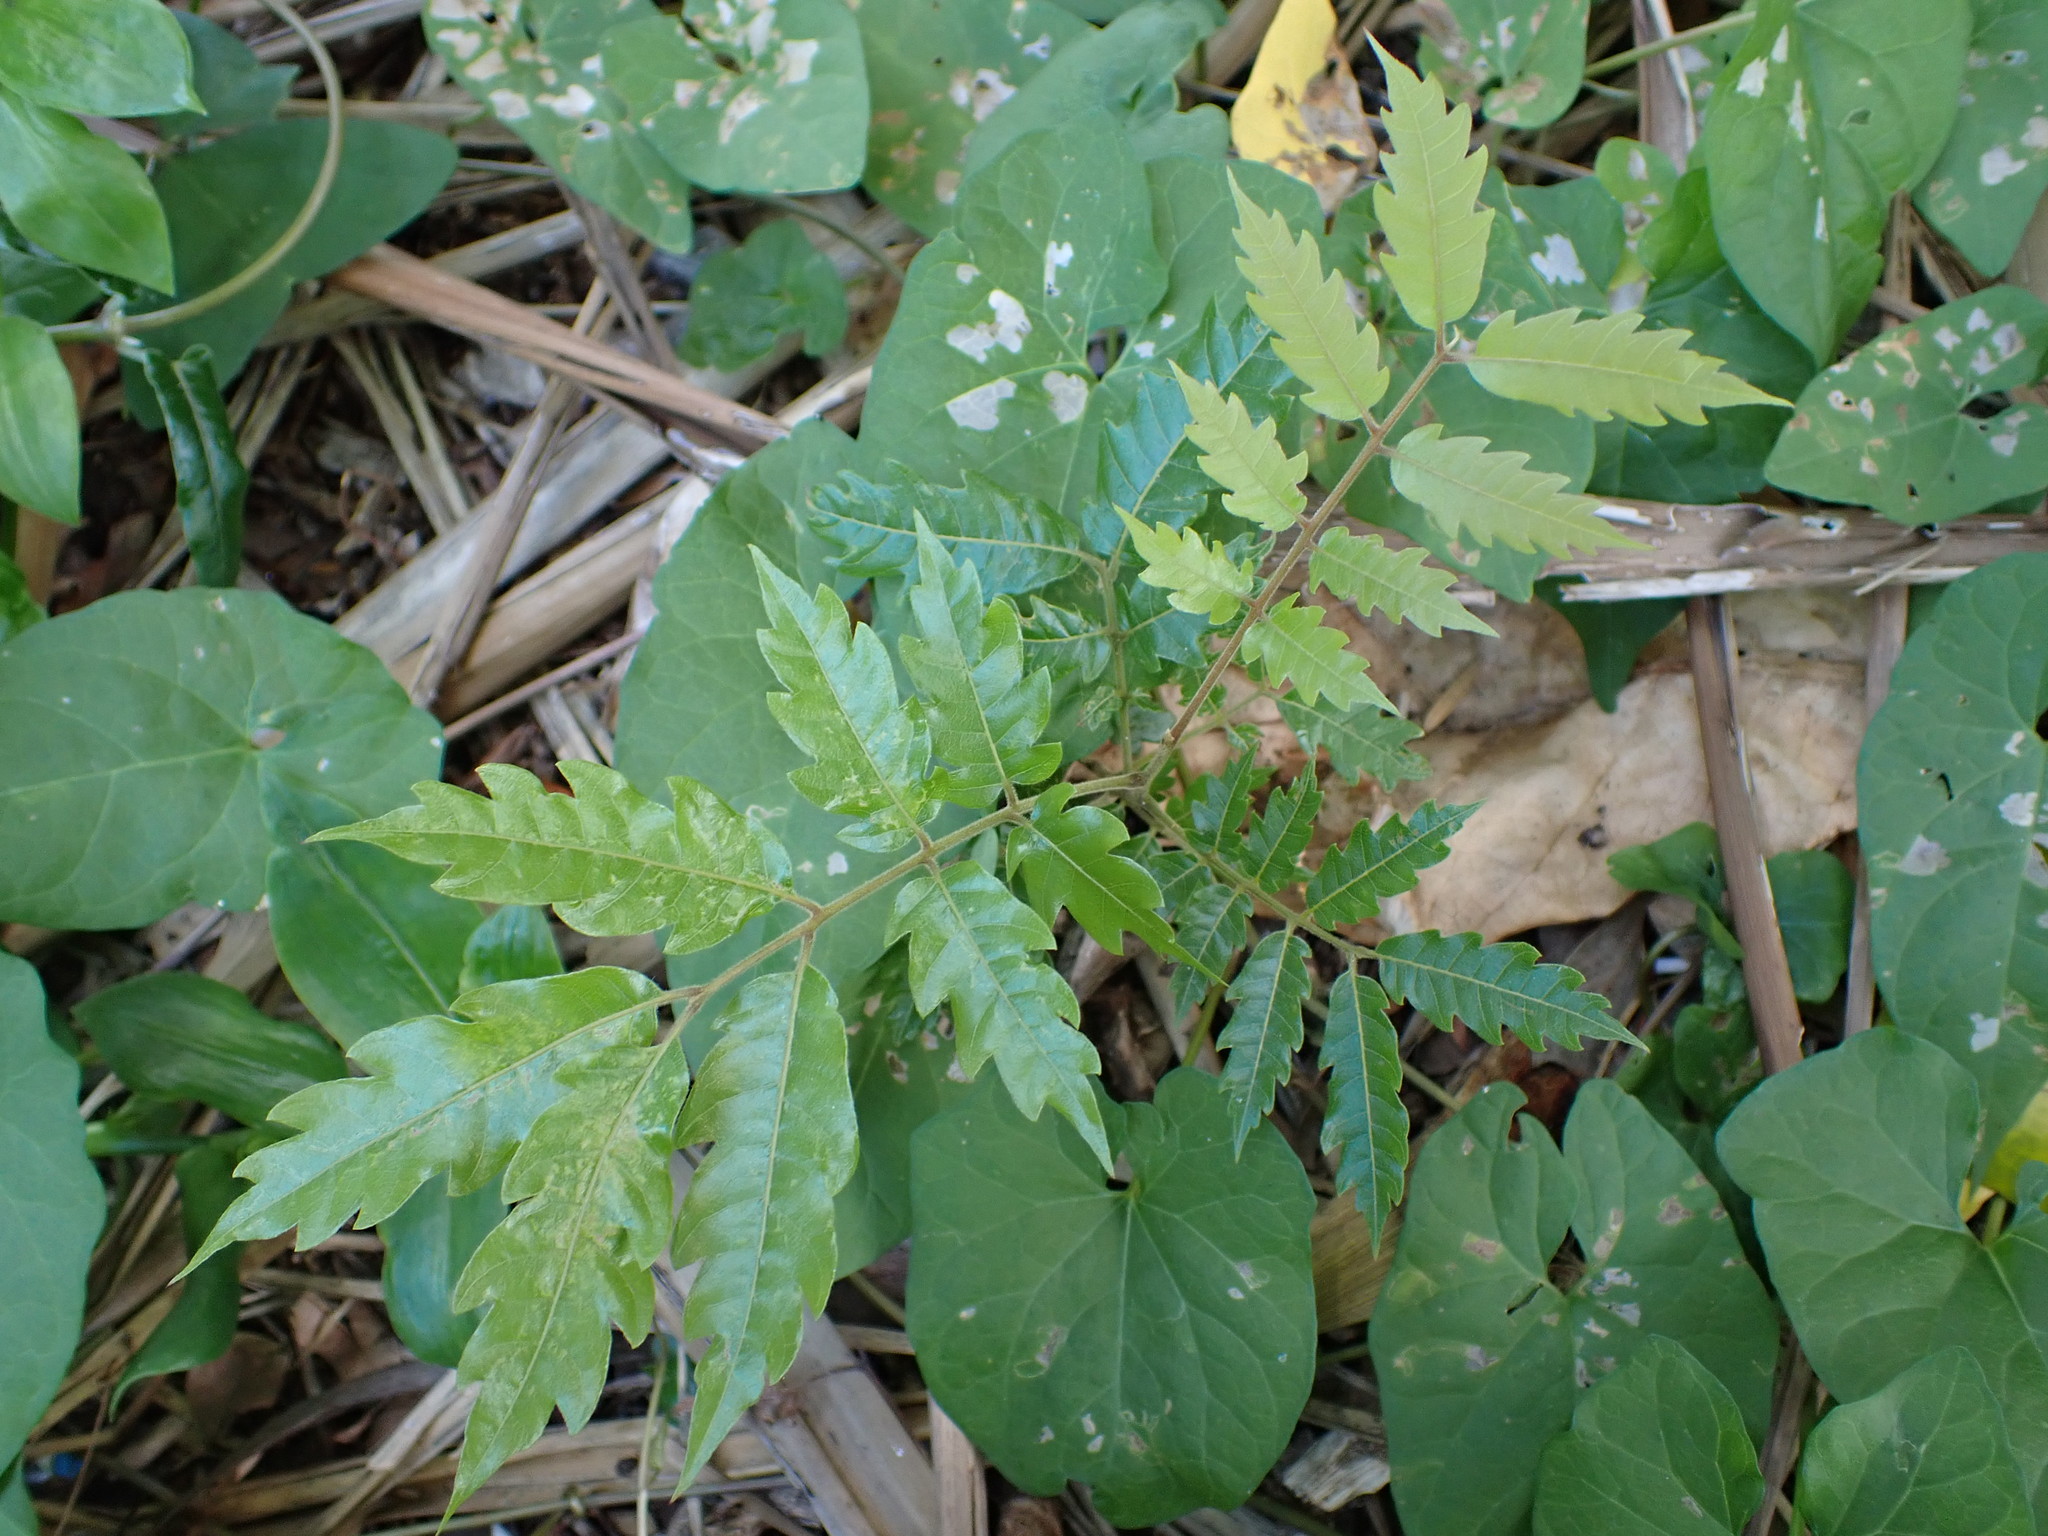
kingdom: Plantae
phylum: Tracheophyta
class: Magnoliopsida
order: Sapindales
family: Sapindaceae
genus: Alectryon
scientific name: Alectryon excelsus
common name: Three kings titoki
